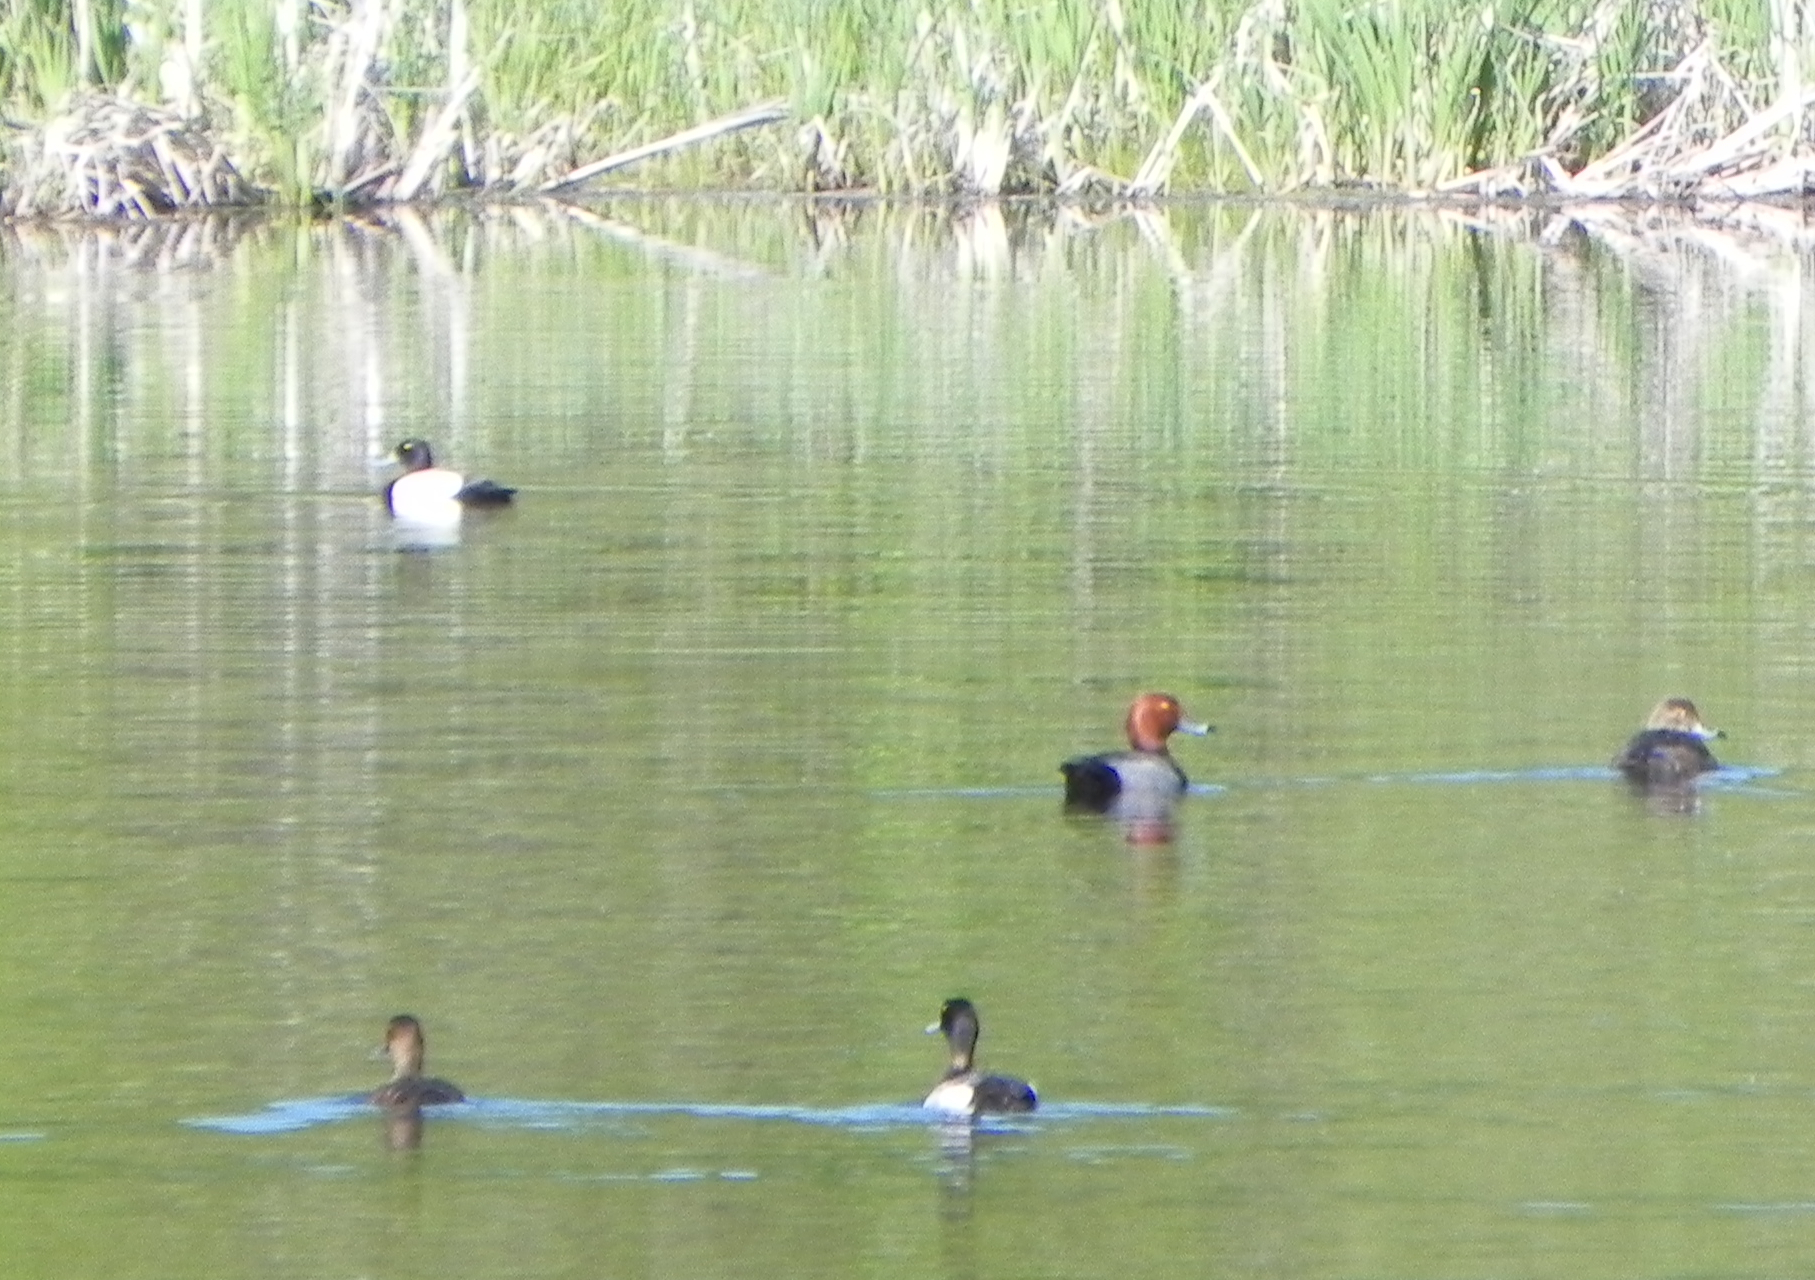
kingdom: Animalia
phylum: Chordata
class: Aves
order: Anseriformes
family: Anatidae
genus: Aythya
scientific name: Aythya americana
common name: Redhead
